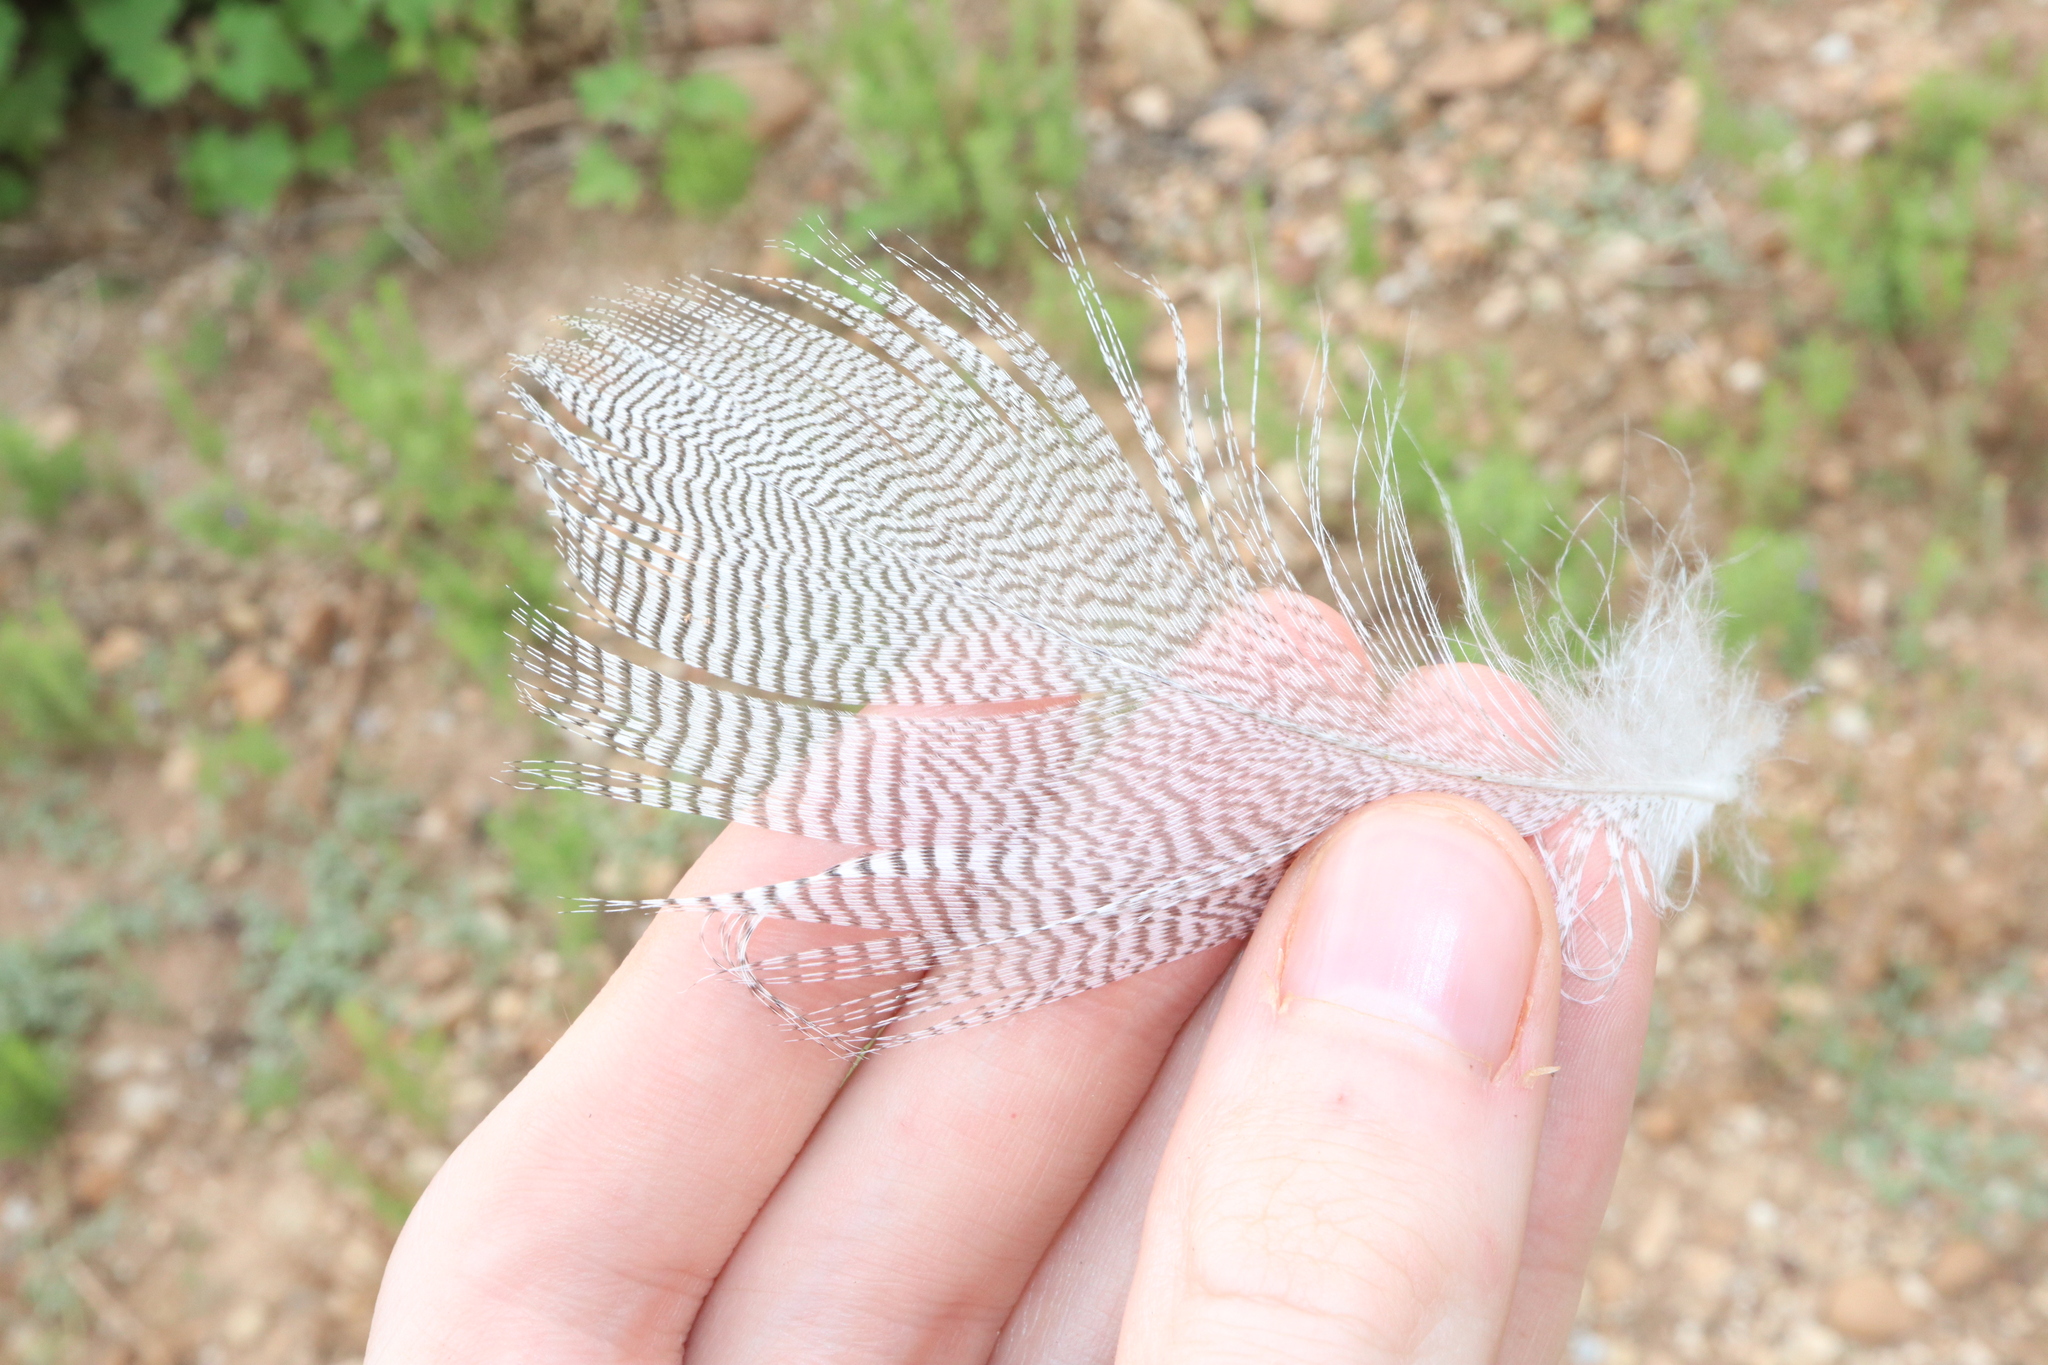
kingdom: Animalia
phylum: Chordata
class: Aves
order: Anseriformes
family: Anatidae
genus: Chenonetta
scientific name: Chenonetta jubata
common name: Maned duck
